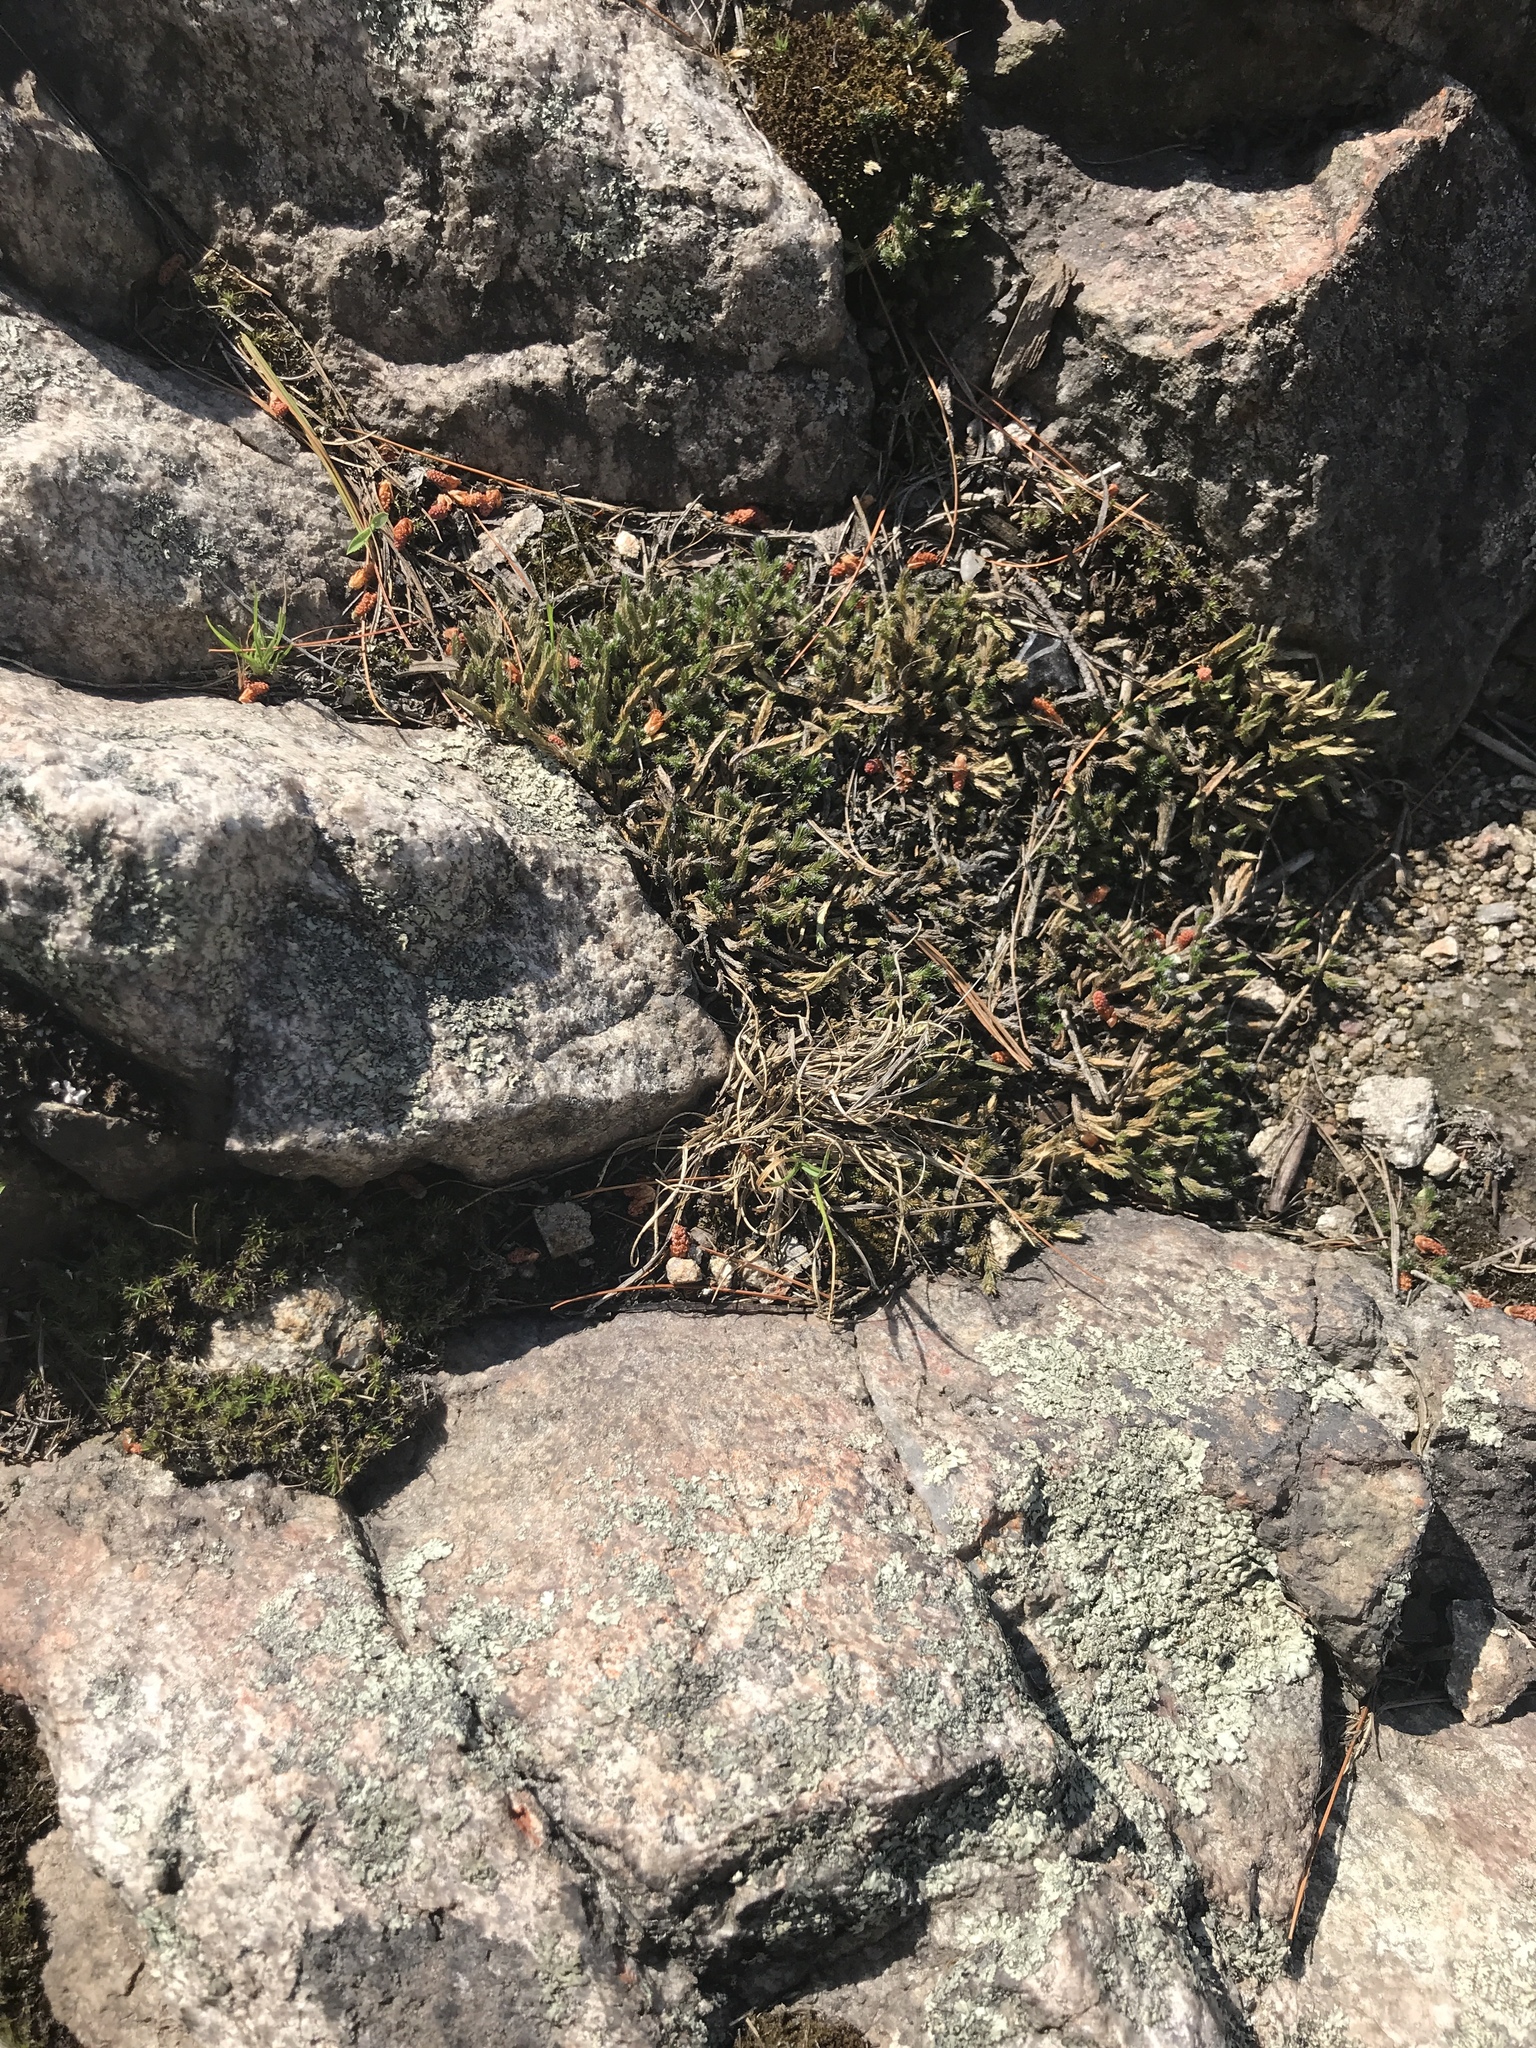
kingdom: Plantae
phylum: Tracheophyta
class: Lycopodiopsida
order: Selaginellales
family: Selaginellaceae
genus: Selaginella
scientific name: Selaginella rupestris
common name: Dwarf spikemoss
